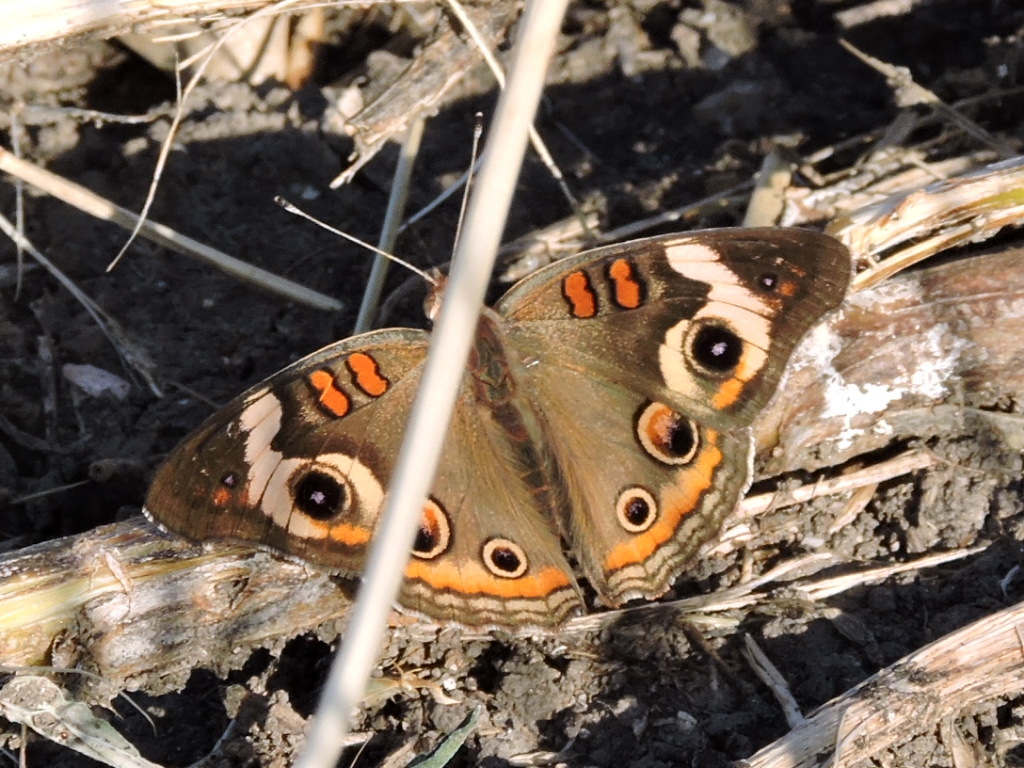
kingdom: Animalia
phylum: Arthropoda
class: Insecta
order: Lepidoptera
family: Nymphalidae
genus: Junonia
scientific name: Junonia coenia
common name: Common buckeye
